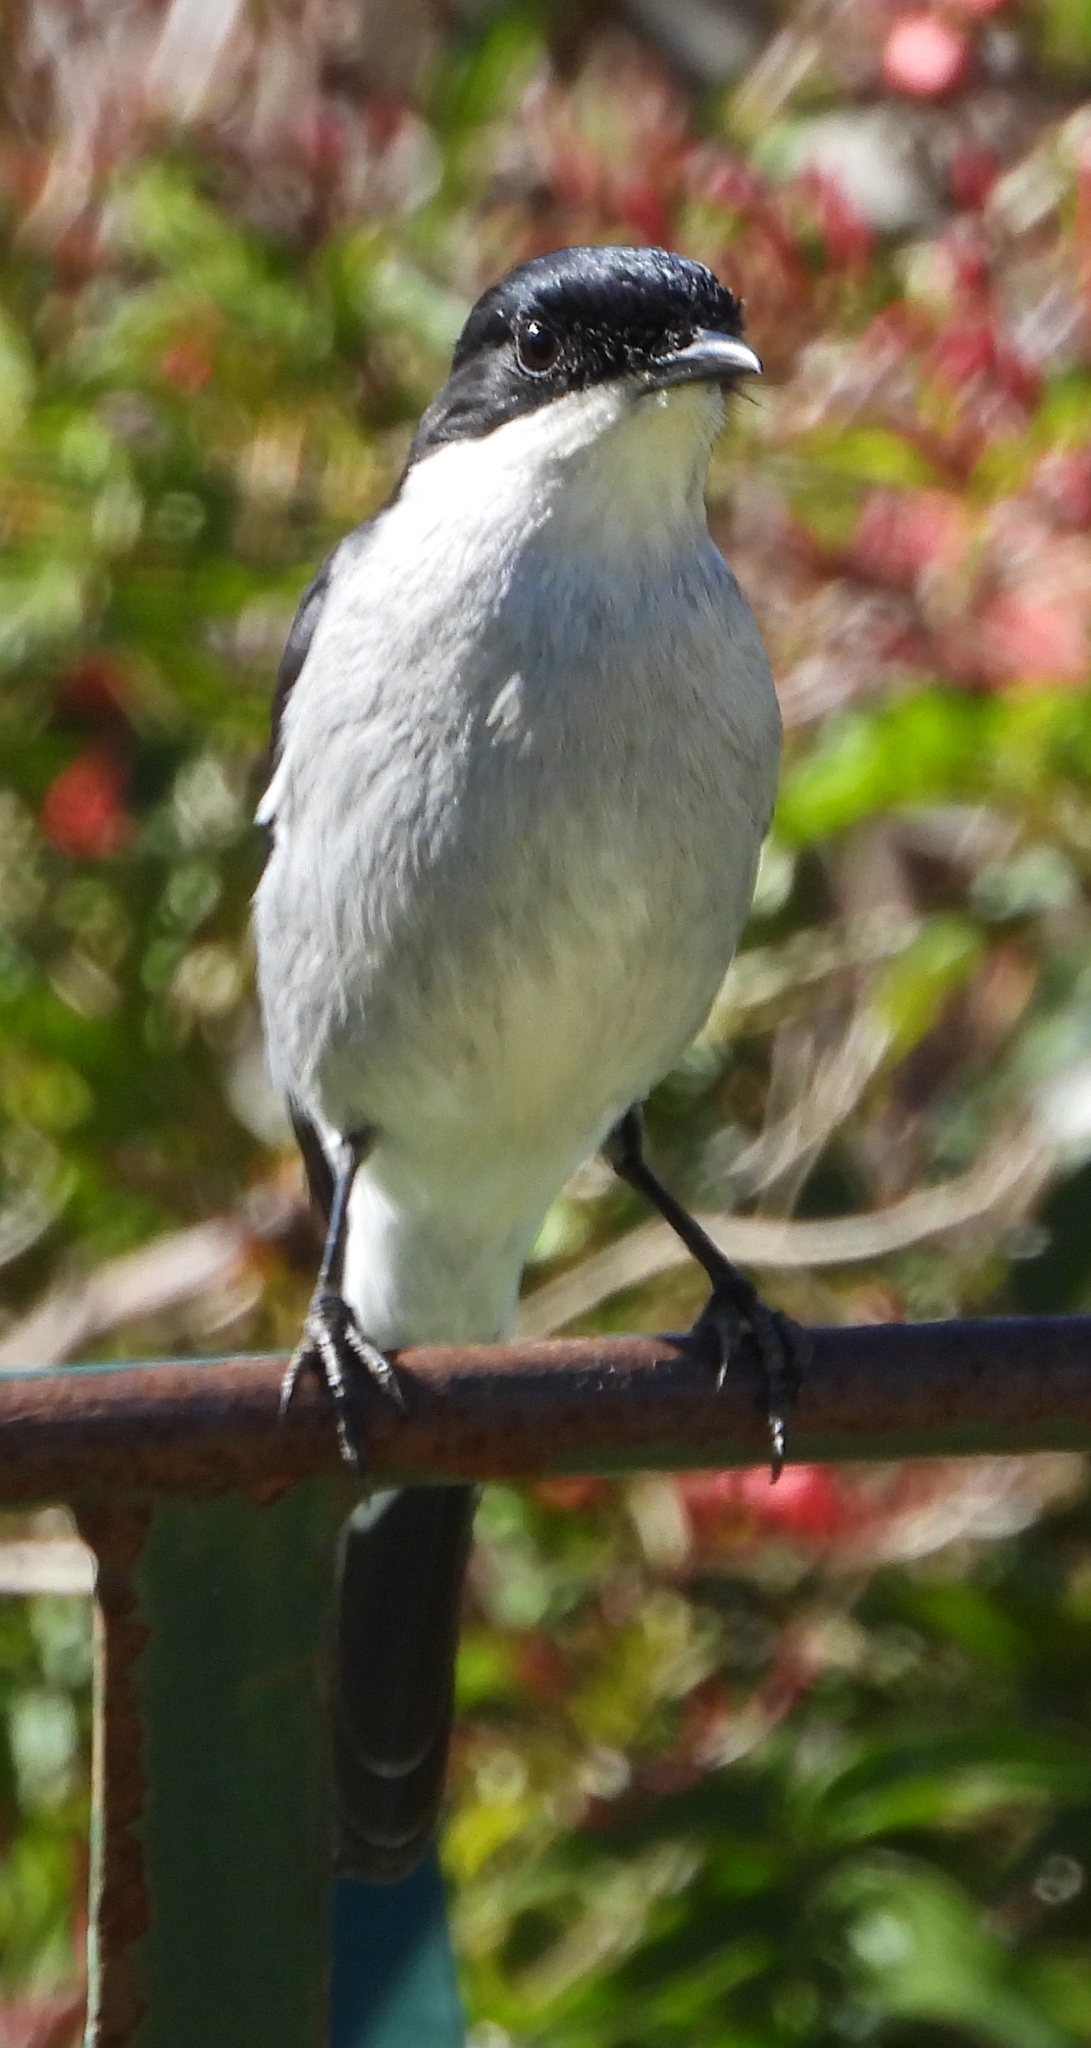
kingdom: Animalia
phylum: Chordata
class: Aves
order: Passeriformes
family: Muscicapidae
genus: Sigelus
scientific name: Sigelus silens
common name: Fiscal flycatcher
